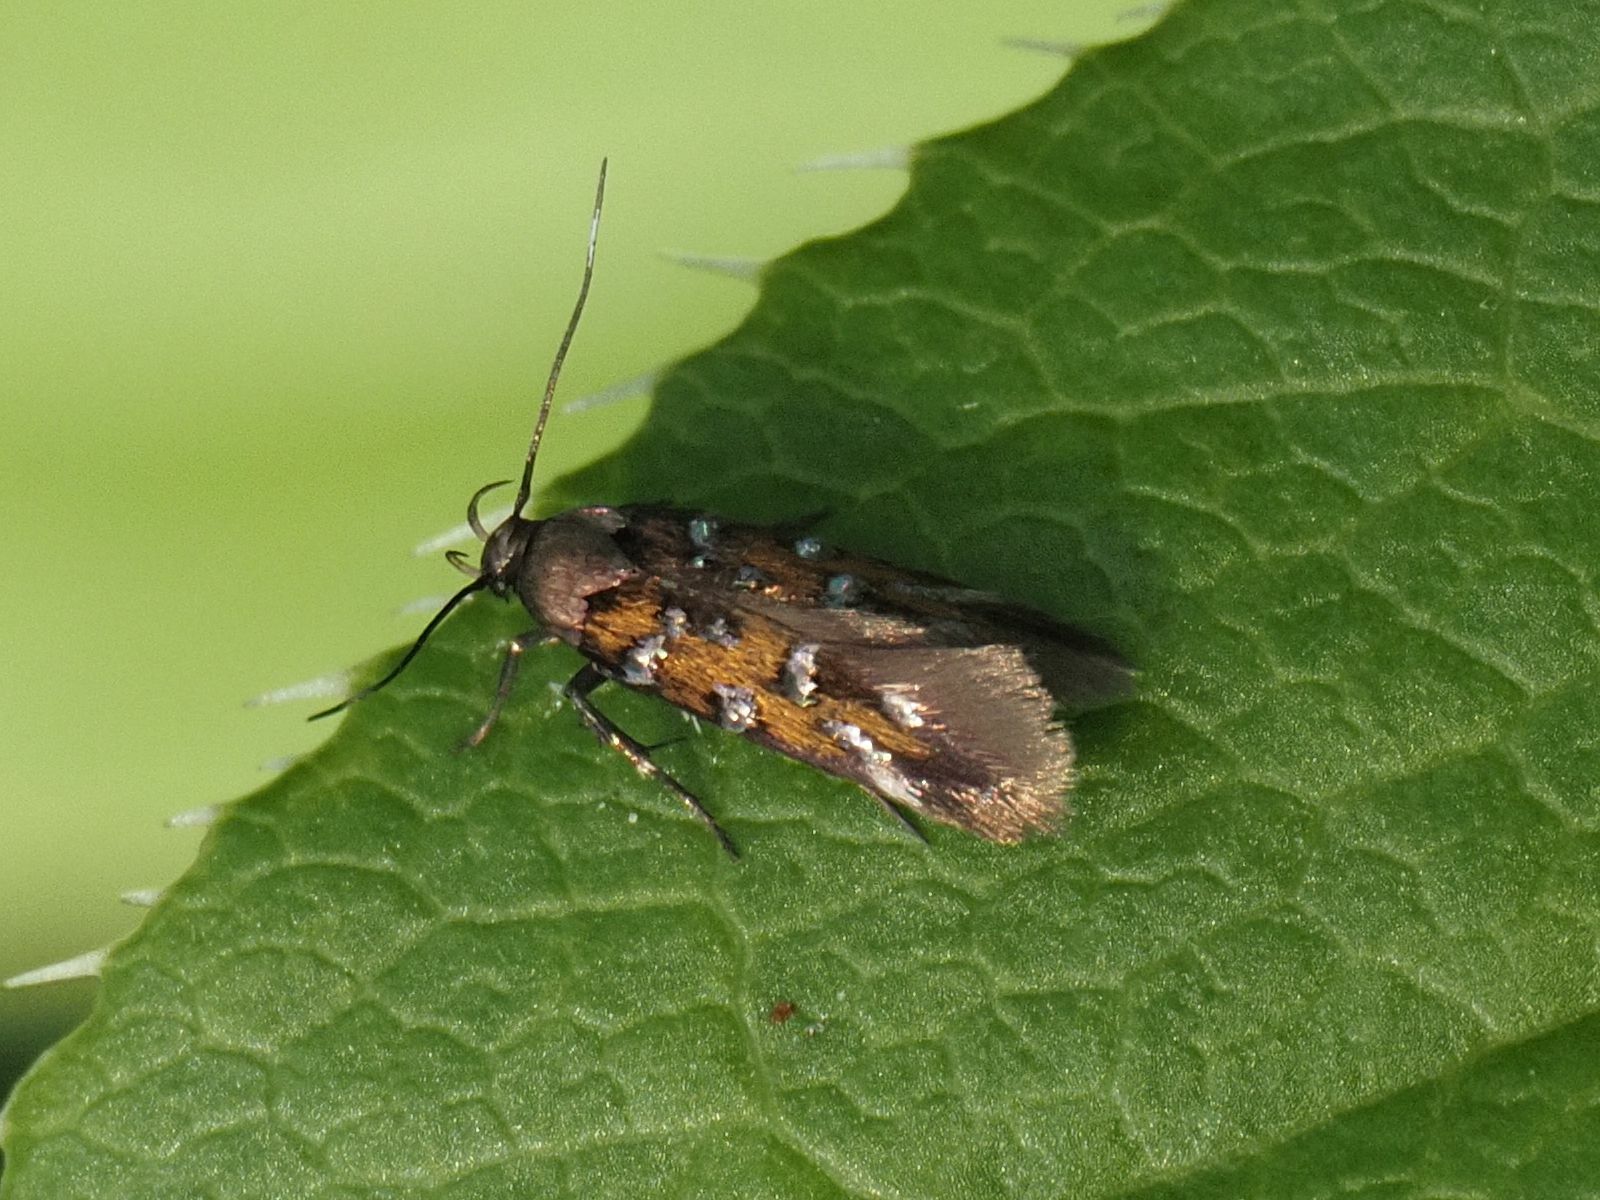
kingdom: Animalia
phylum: Arthropoda
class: Insecta
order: Lepidoptera
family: Cosmopterigidae
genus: Pancalia
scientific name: Pancalia leuwenhoekella
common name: Violet cosmet
